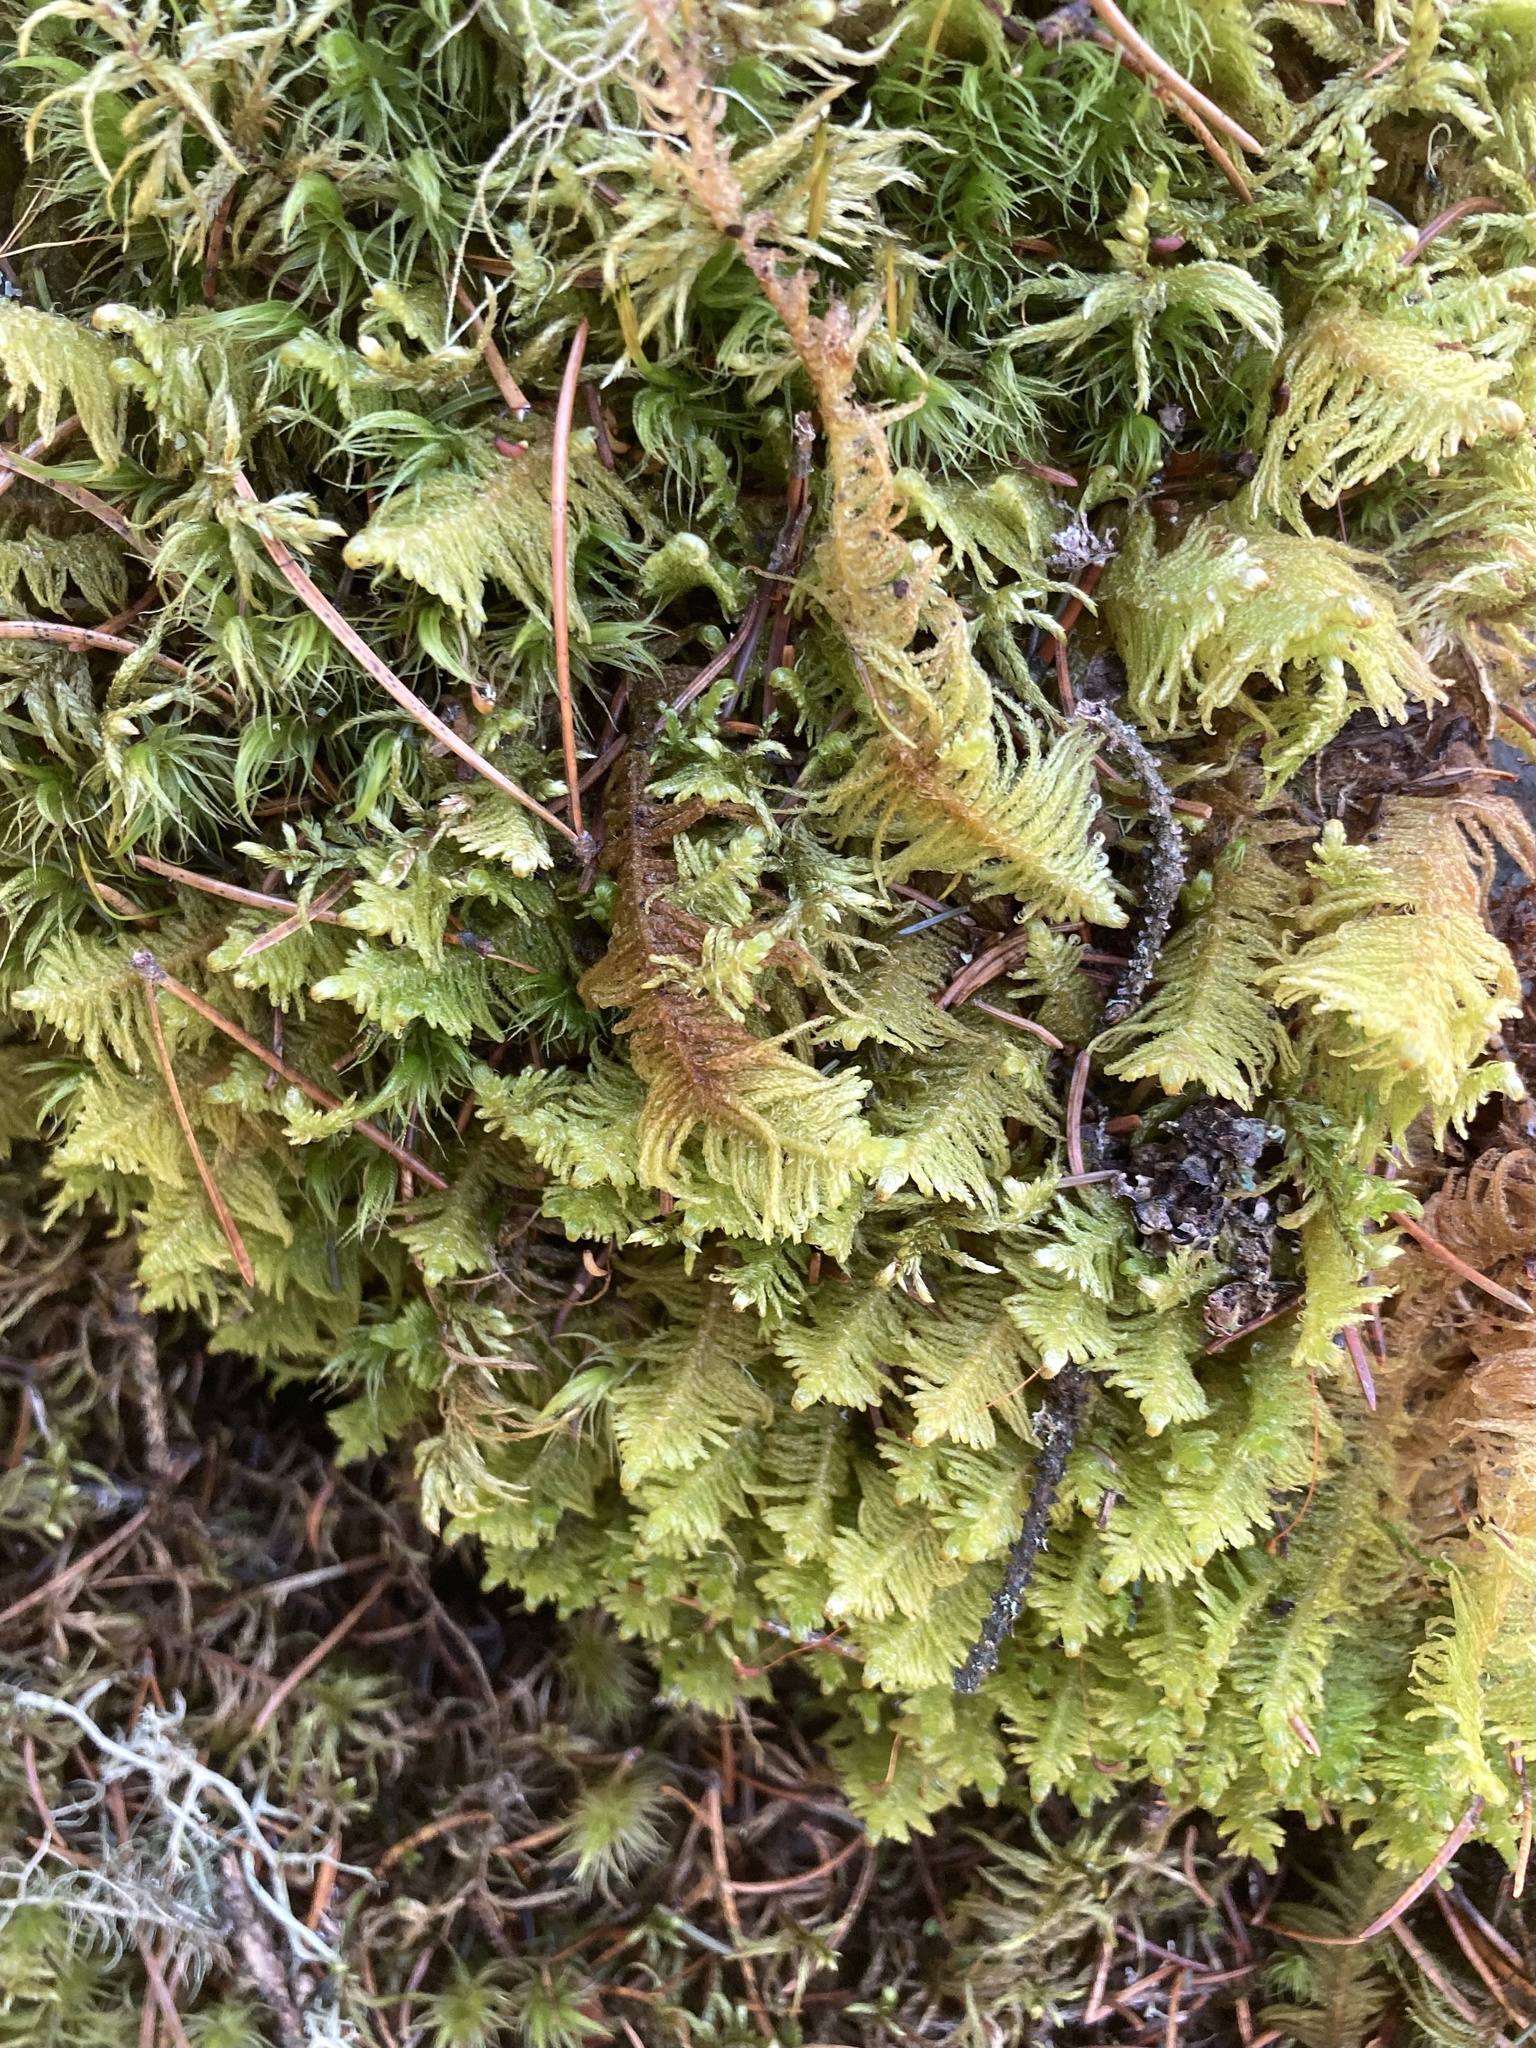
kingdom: Plantae
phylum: Bryophyta
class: Bryopsida
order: Hypnales
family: Pylaisiaceae
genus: Ptilium
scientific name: Ptilium crista-castrensis
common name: Knight's plume moss
